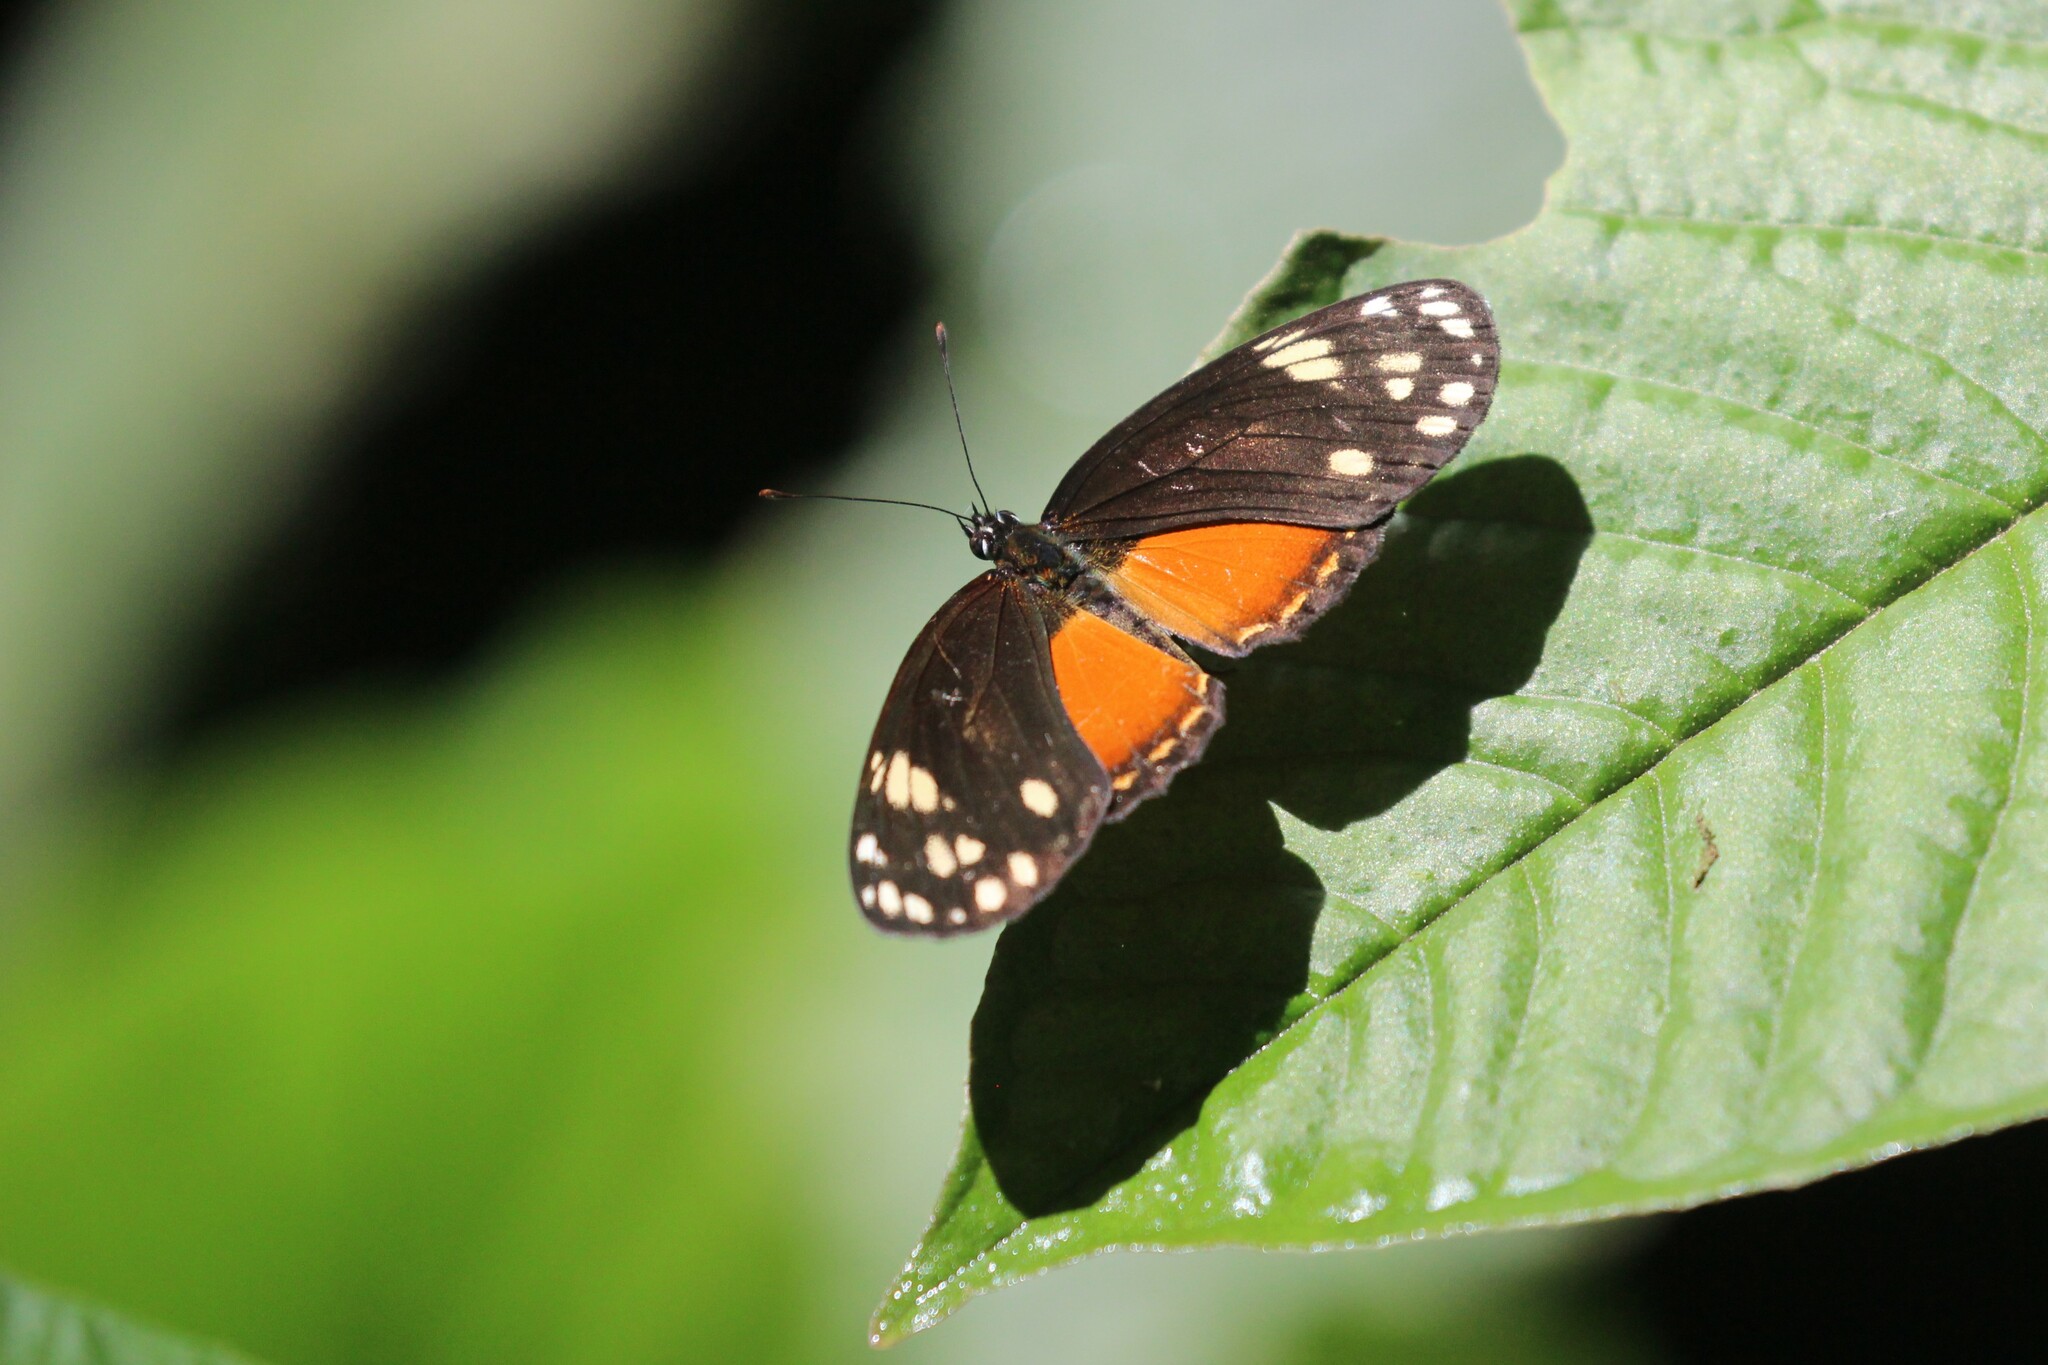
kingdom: Animalia
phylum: Arthropoda
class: Insecta
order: Lepidoptera
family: Nymphalidae
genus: Eresia
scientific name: Eresia emerantia
